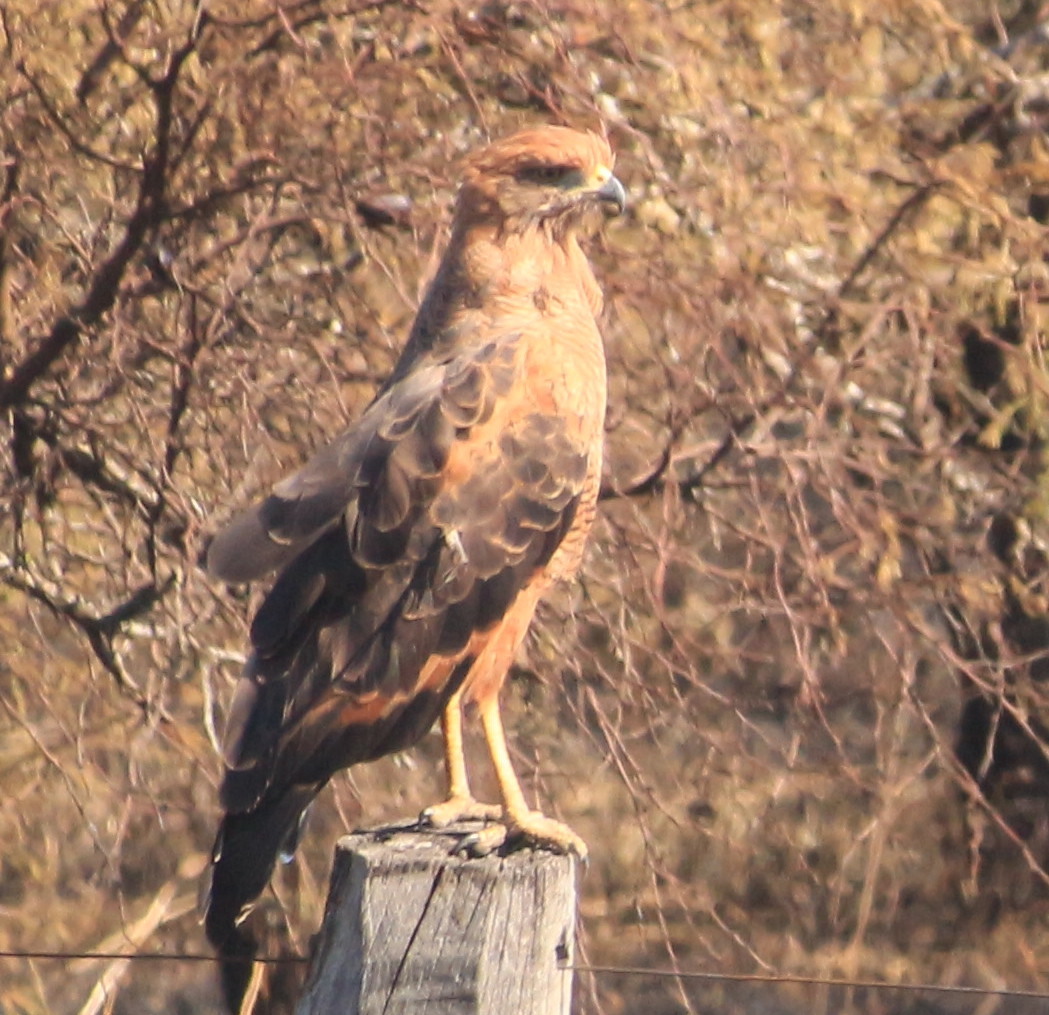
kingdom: Animalia
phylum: Chordata
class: Aves
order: Accipitriformes
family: Accipitridae
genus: Buteogallus
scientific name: Buteogallus meridionalis
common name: Savanna hawk
